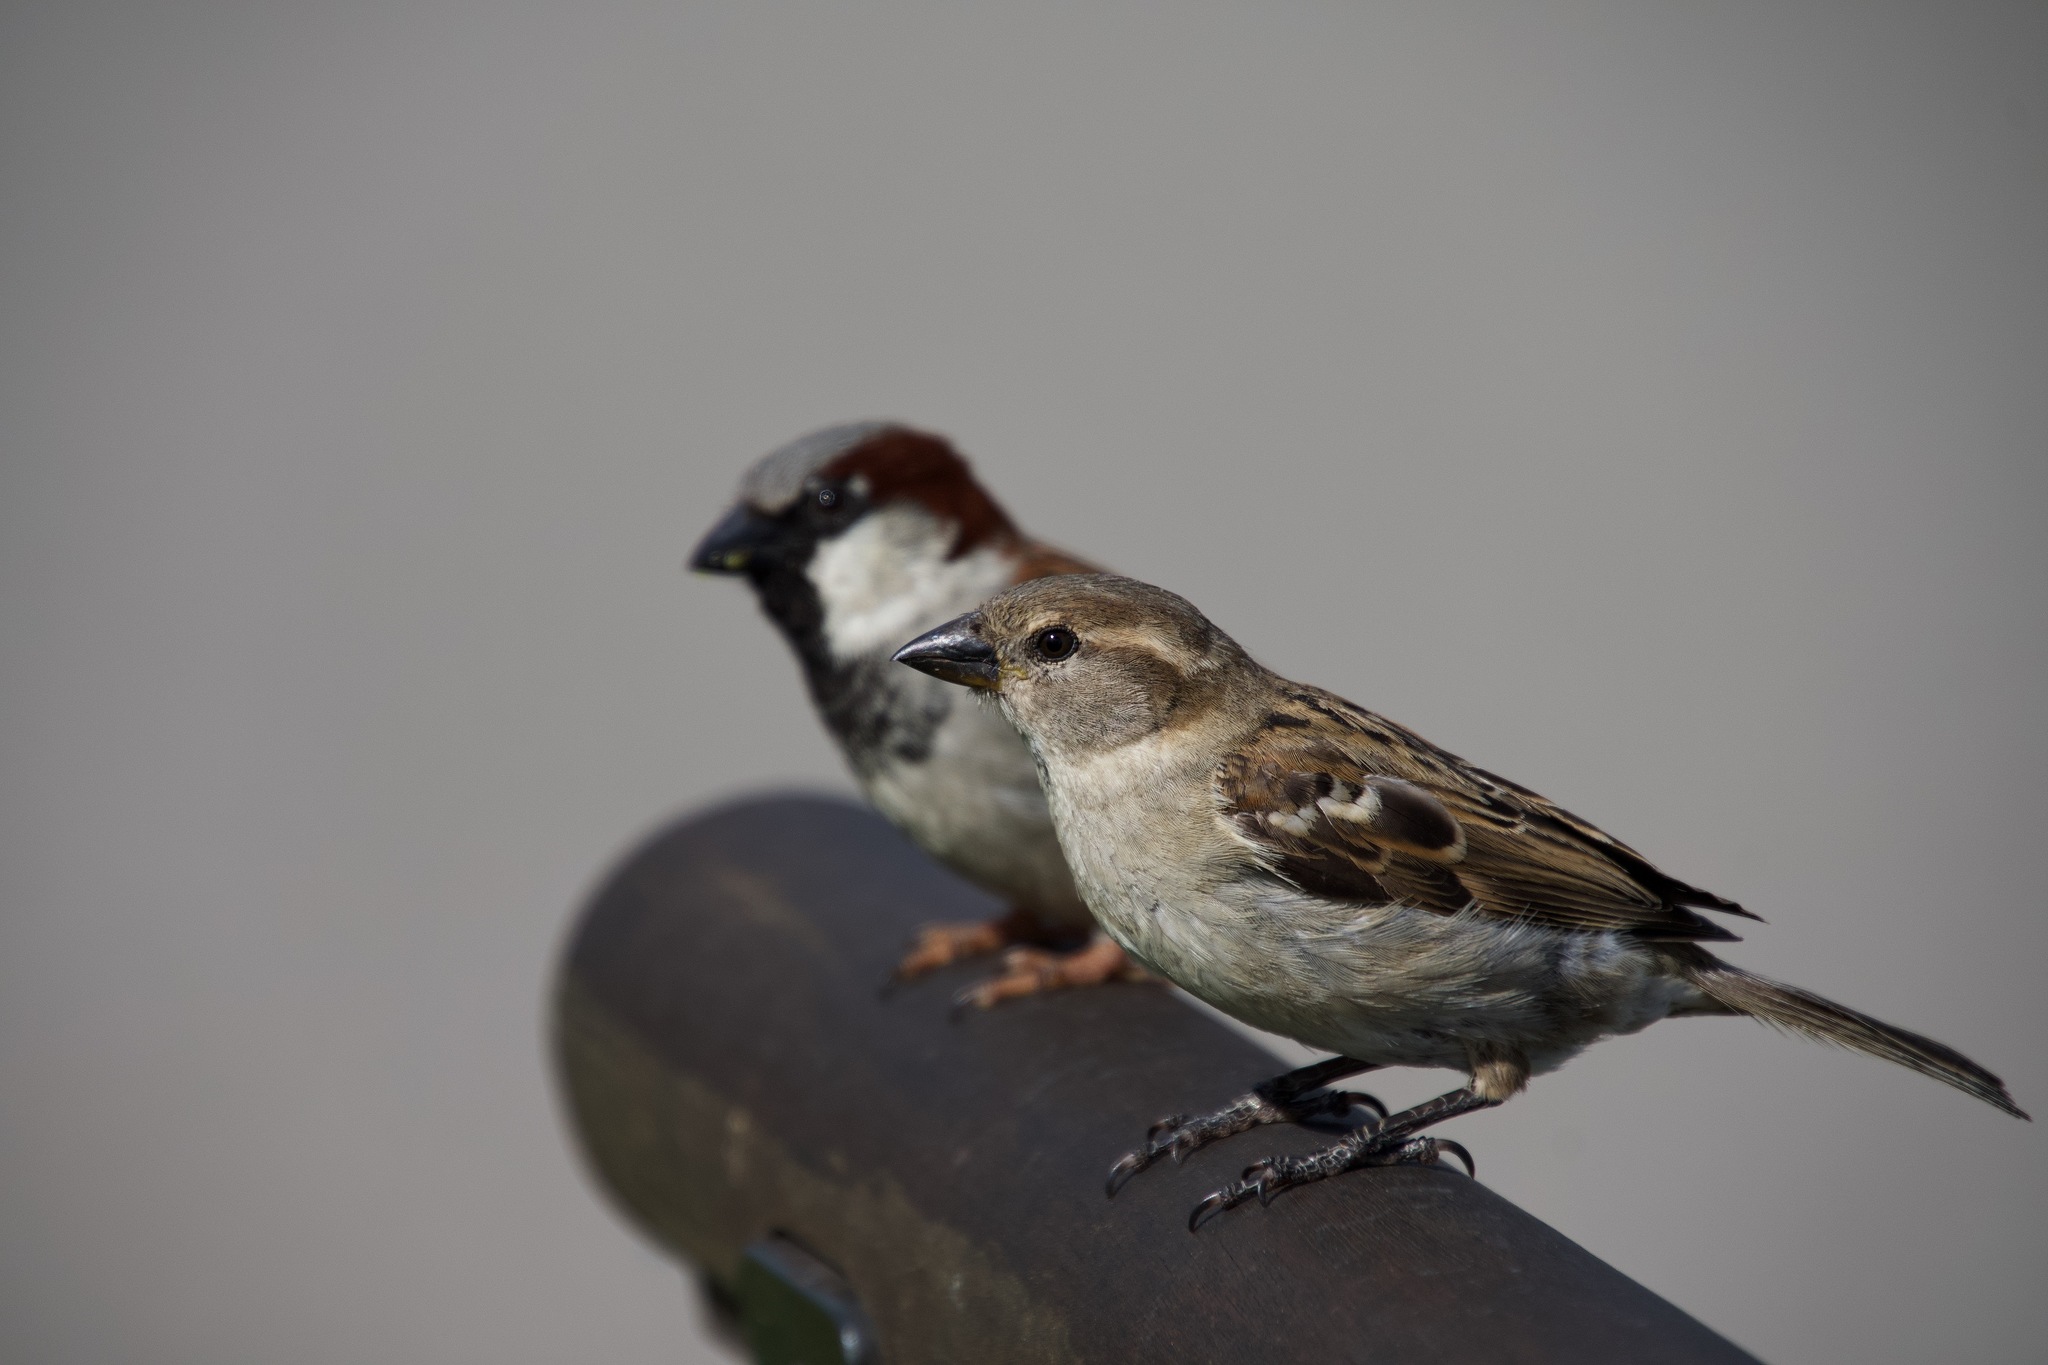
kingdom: Animalia
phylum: Chordata
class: Aves
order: Passeriformes
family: Passeridae
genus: Passer
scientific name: Passer domesticus
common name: House sparrow
